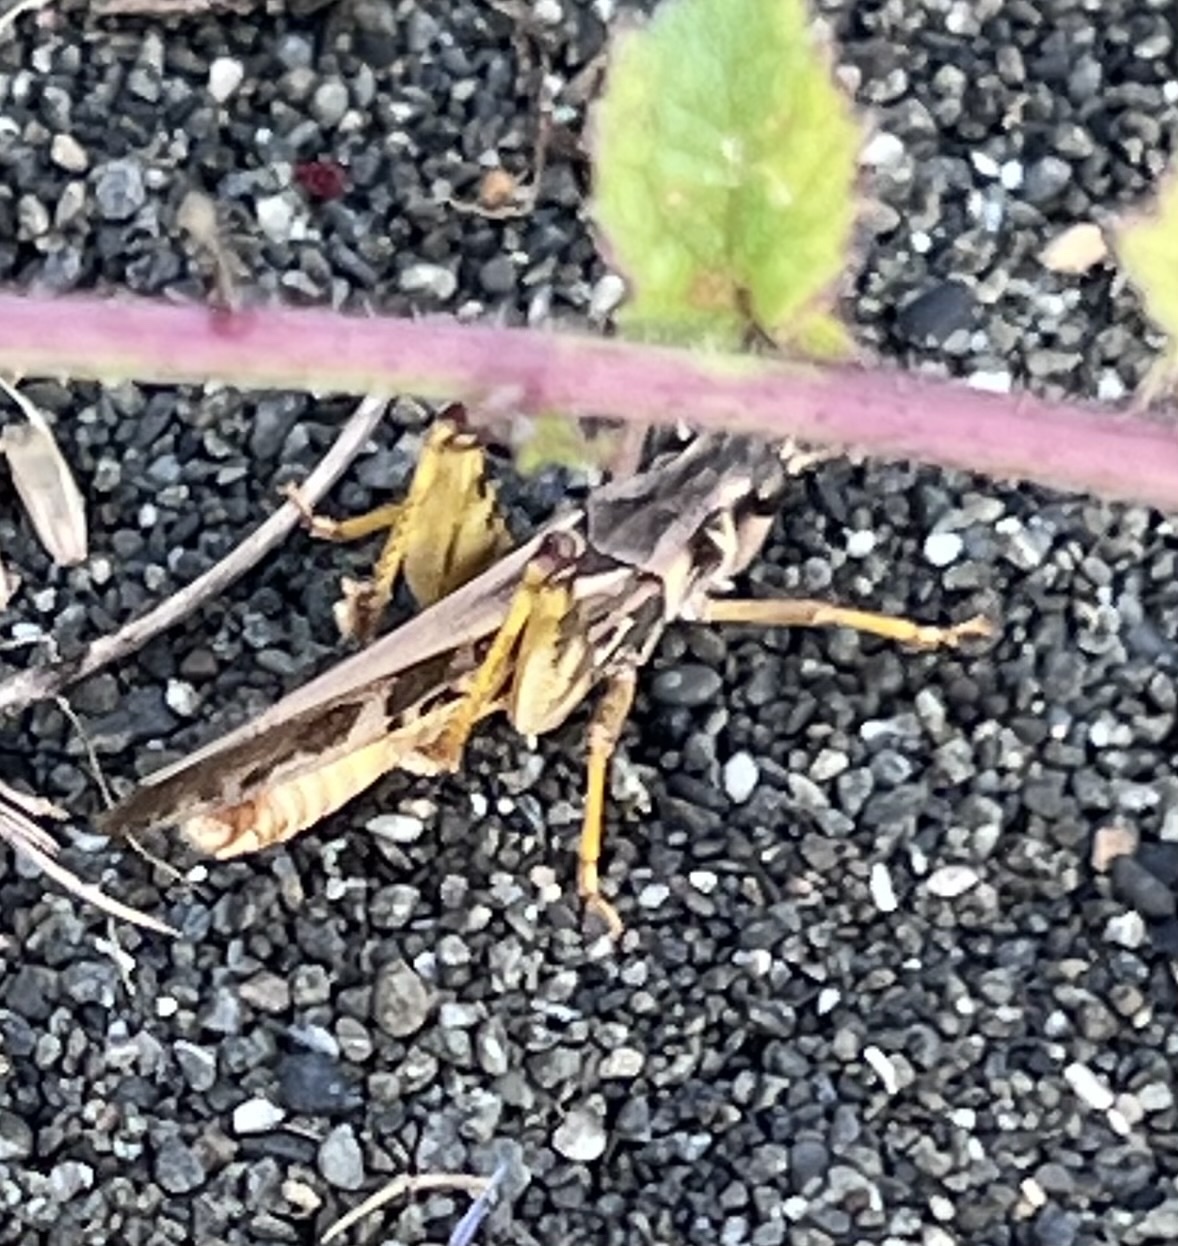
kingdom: Animalia
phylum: Arthropoda
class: Insecta
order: Orthoptera
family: Acrididae
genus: Camnula
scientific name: Camnula pellucida
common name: Clear-winged grasshopper
